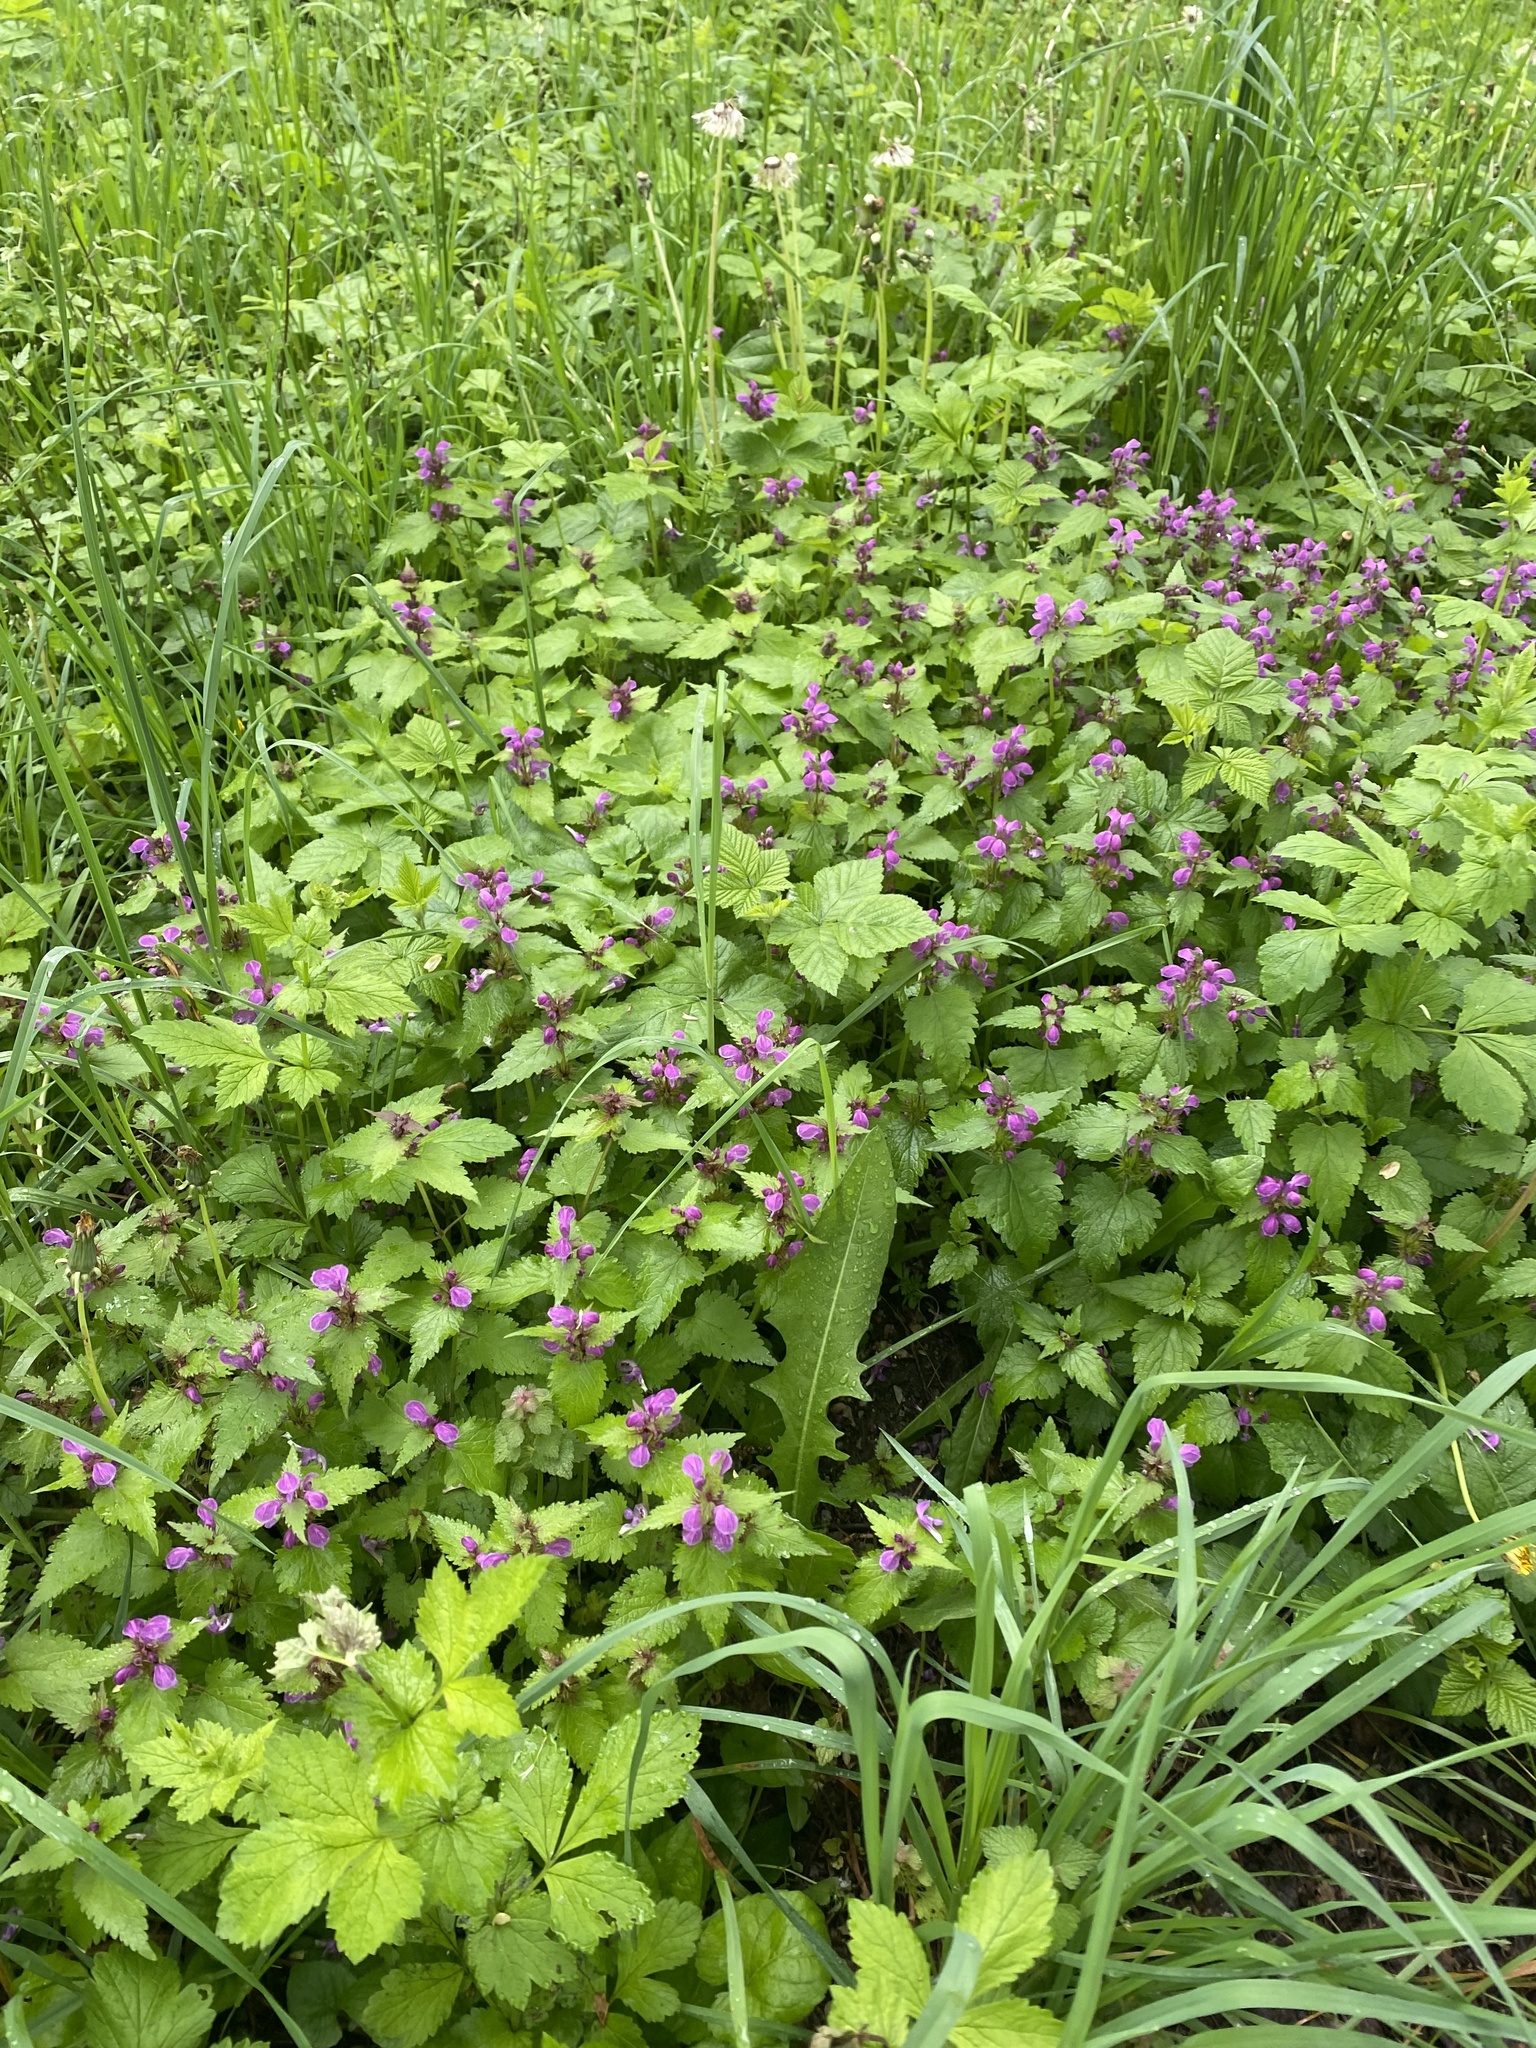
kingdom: Plantae
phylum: Tracheophyta
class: Magnoliopsida
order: Lamiales
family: Lamiaceae
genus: Lamium
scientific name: Lamium maculatum
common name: Spotted dead-nettle
